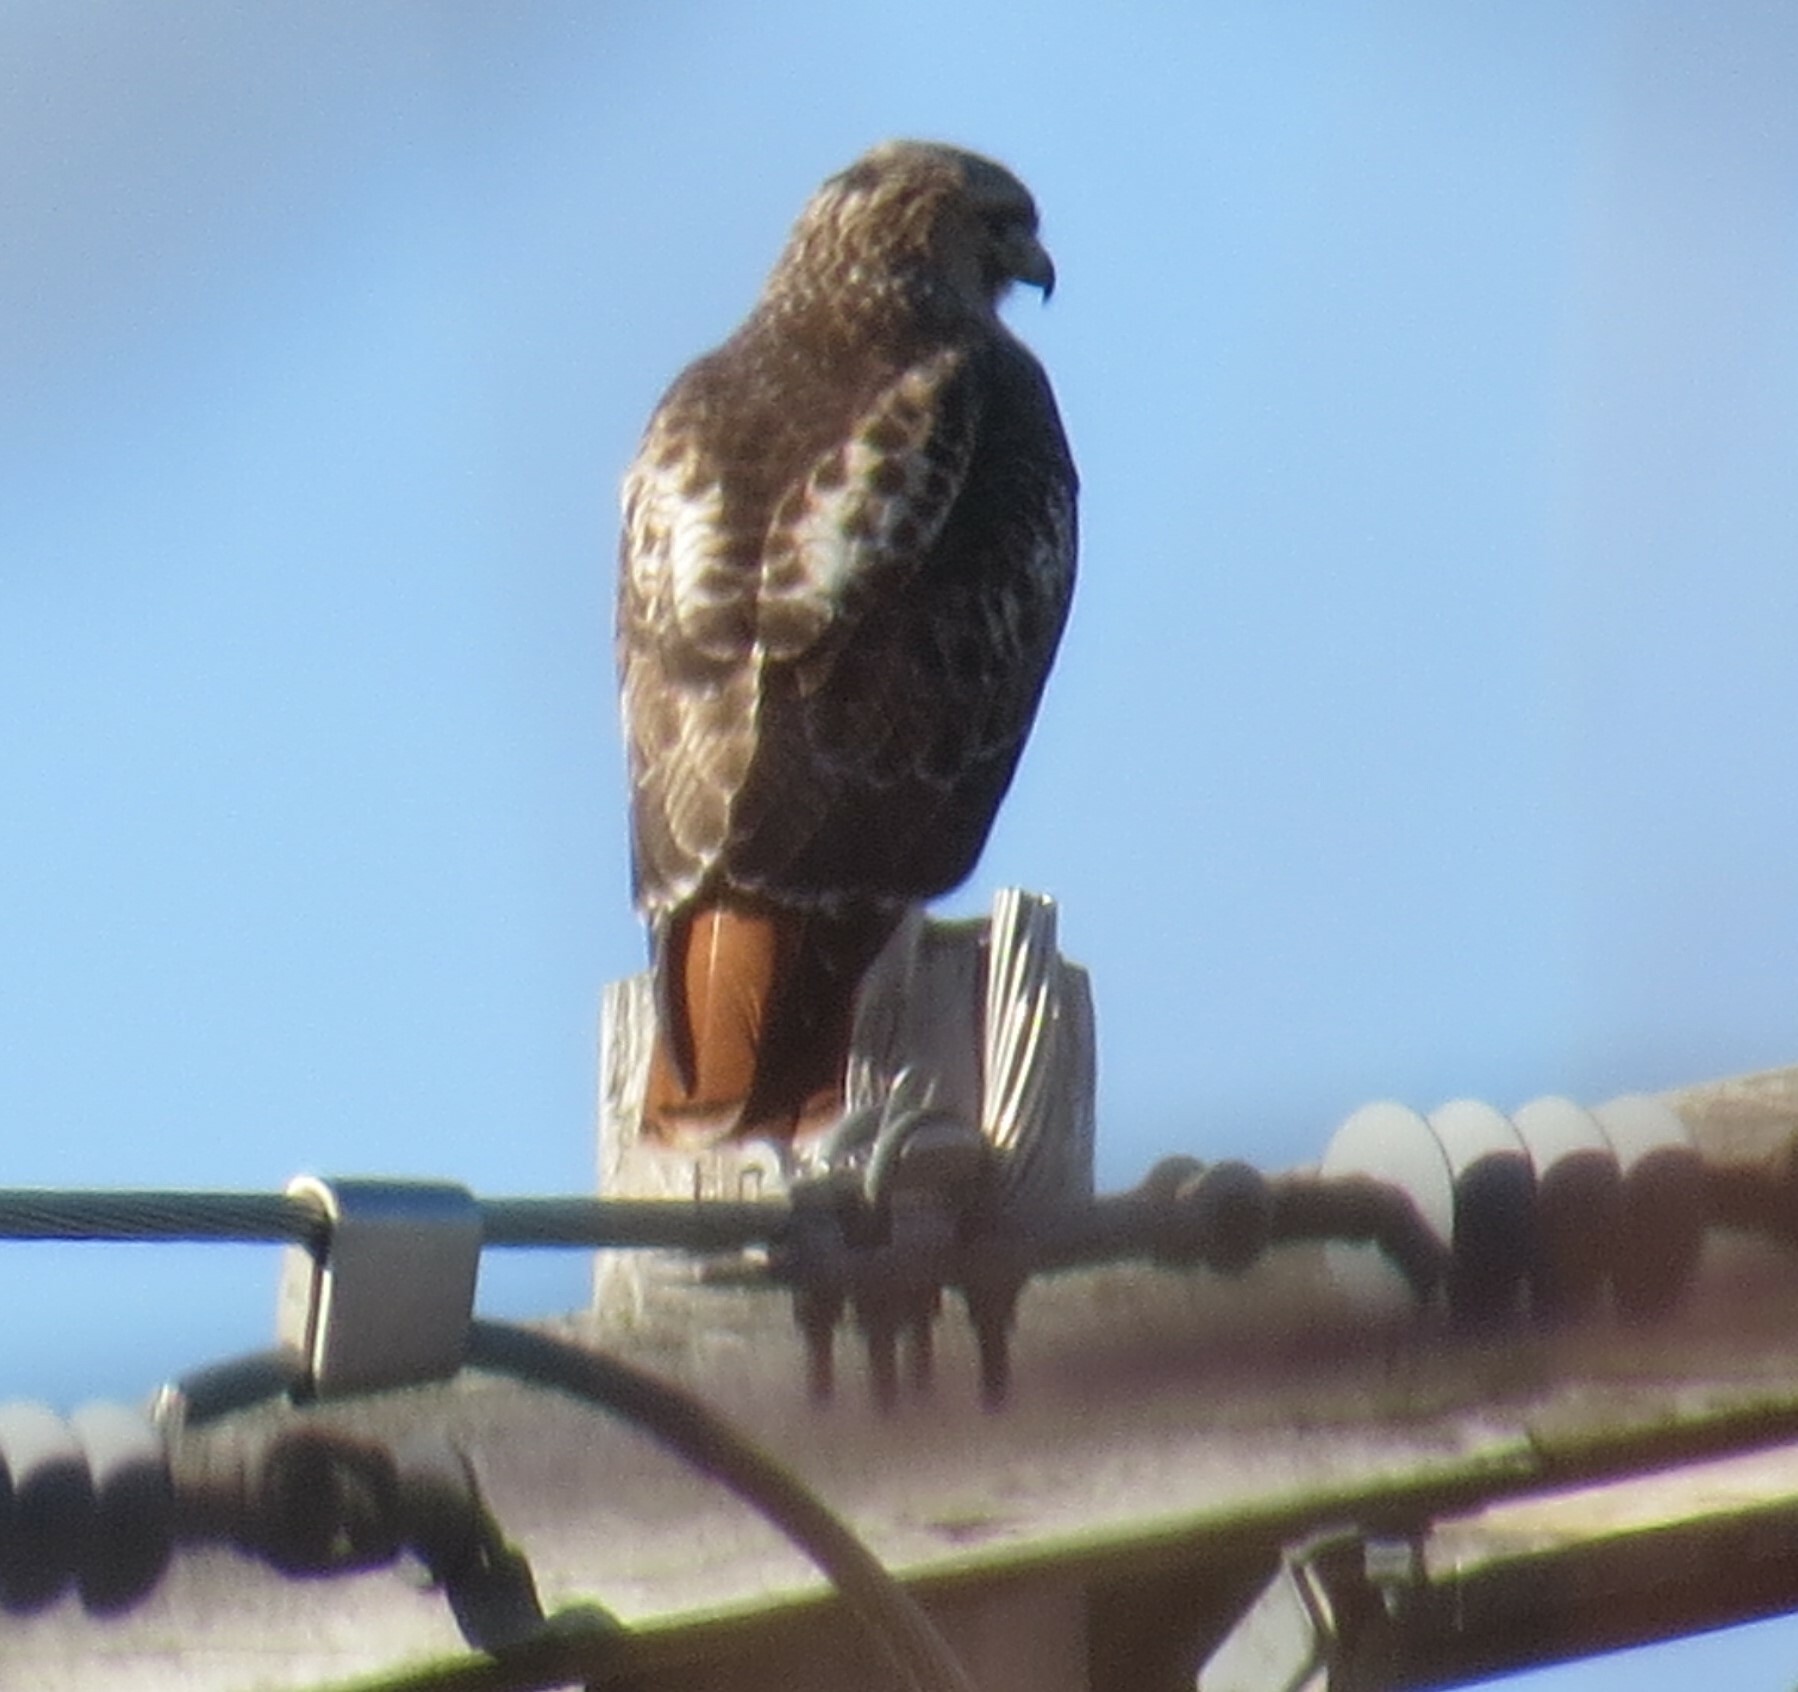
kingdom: Animalia
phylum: Chordata
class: Aves
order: Accipitriformes
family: Accipitridae
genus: Buteo
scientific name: Buteo jamaicensis
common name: Red-tailed hawk
